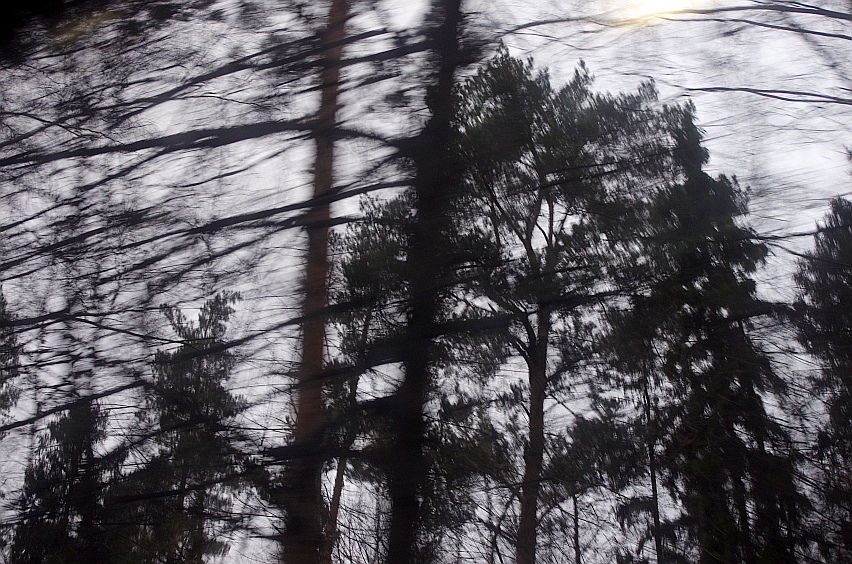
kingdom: Plantae
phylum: Tracheophyta
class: Pinopsida
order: Pinales
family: Pinaceae
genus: Pinus
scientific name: Pinus sylvestris
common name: Scots pine
